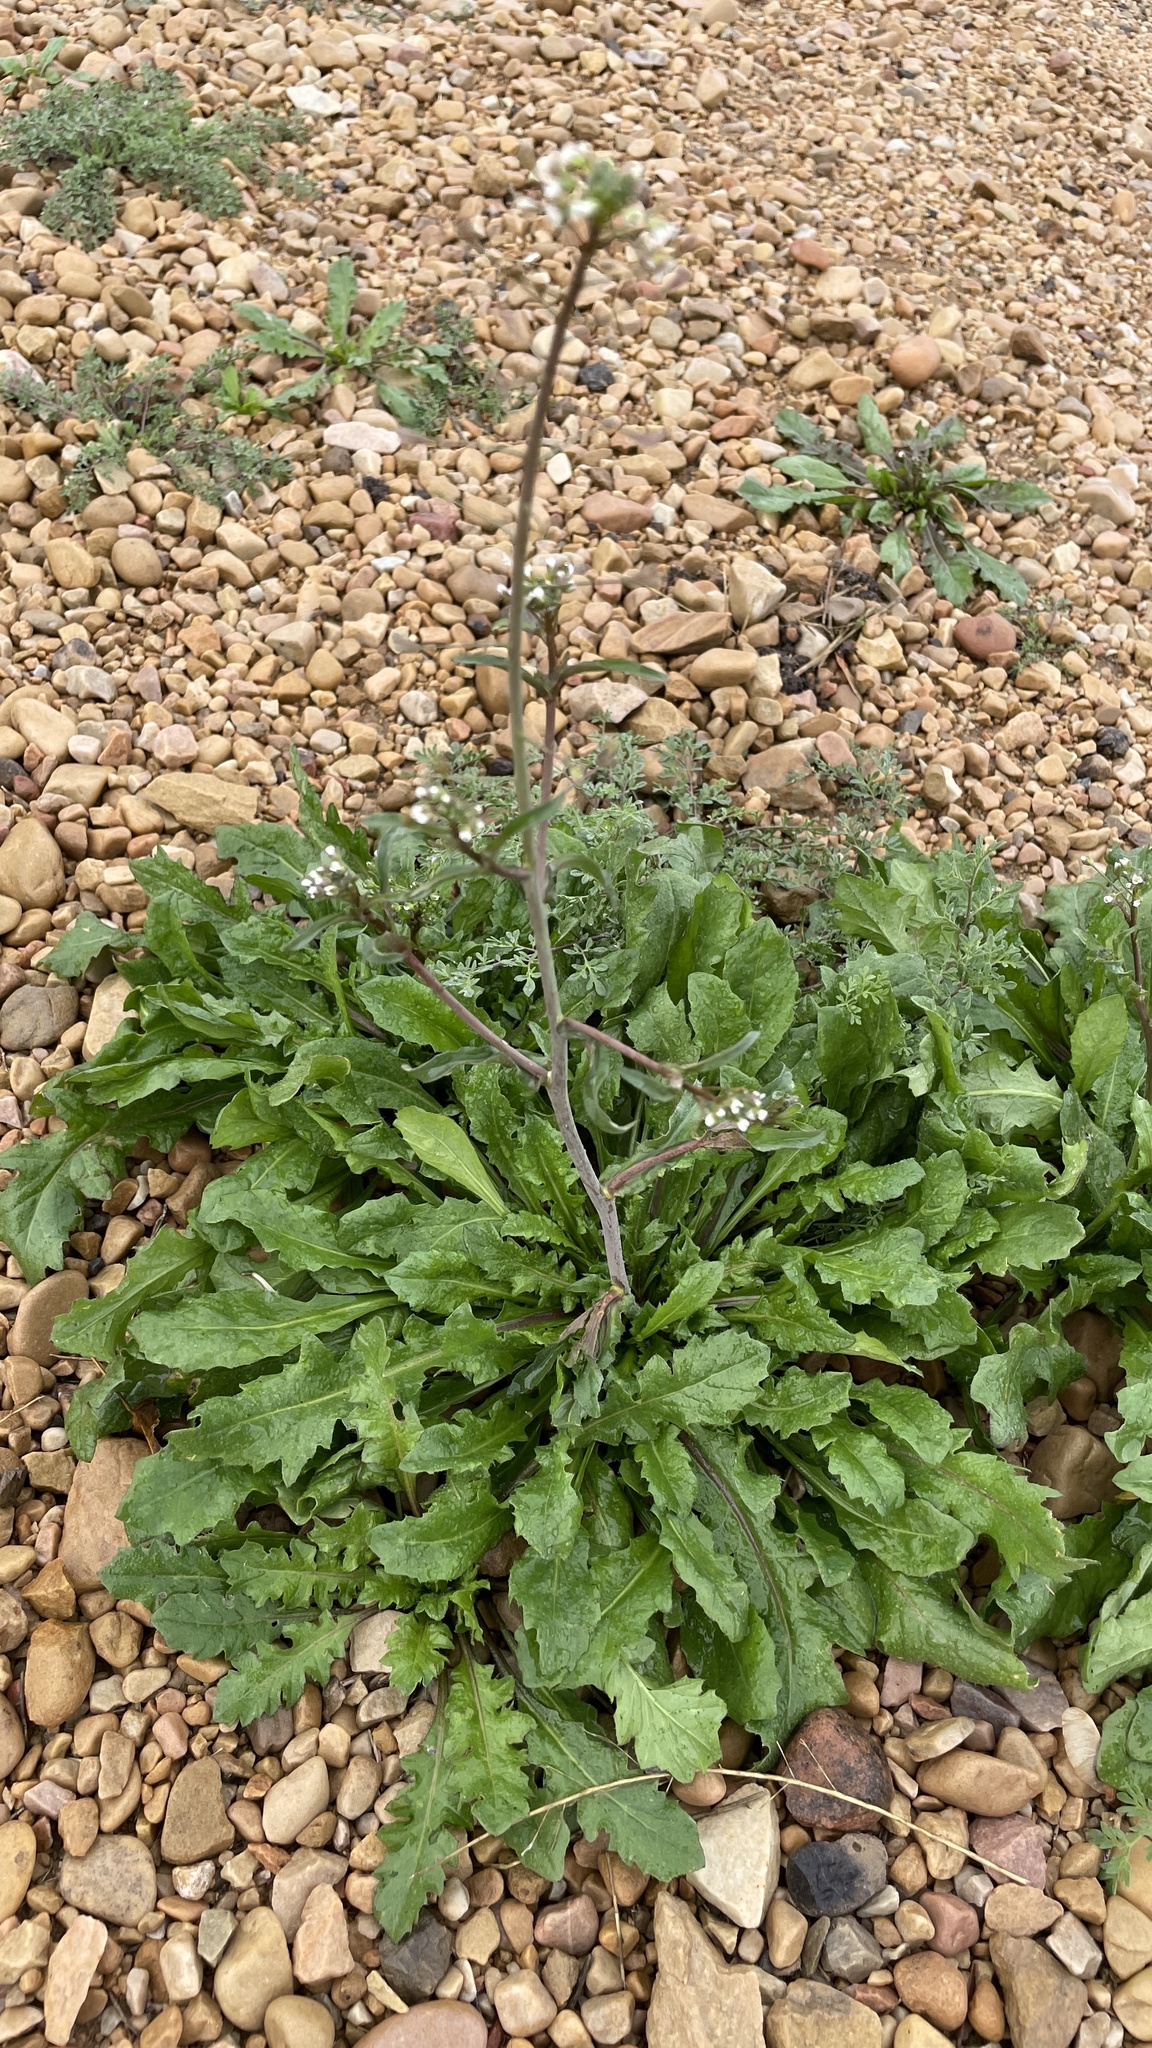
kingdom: Plantae
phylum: Tracheophyta
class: Magnoliopsida
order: Brassicales
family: Brassicaceae
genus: Capsella
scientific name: Capsella bursa-pastoris
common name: Shepherd's purse
